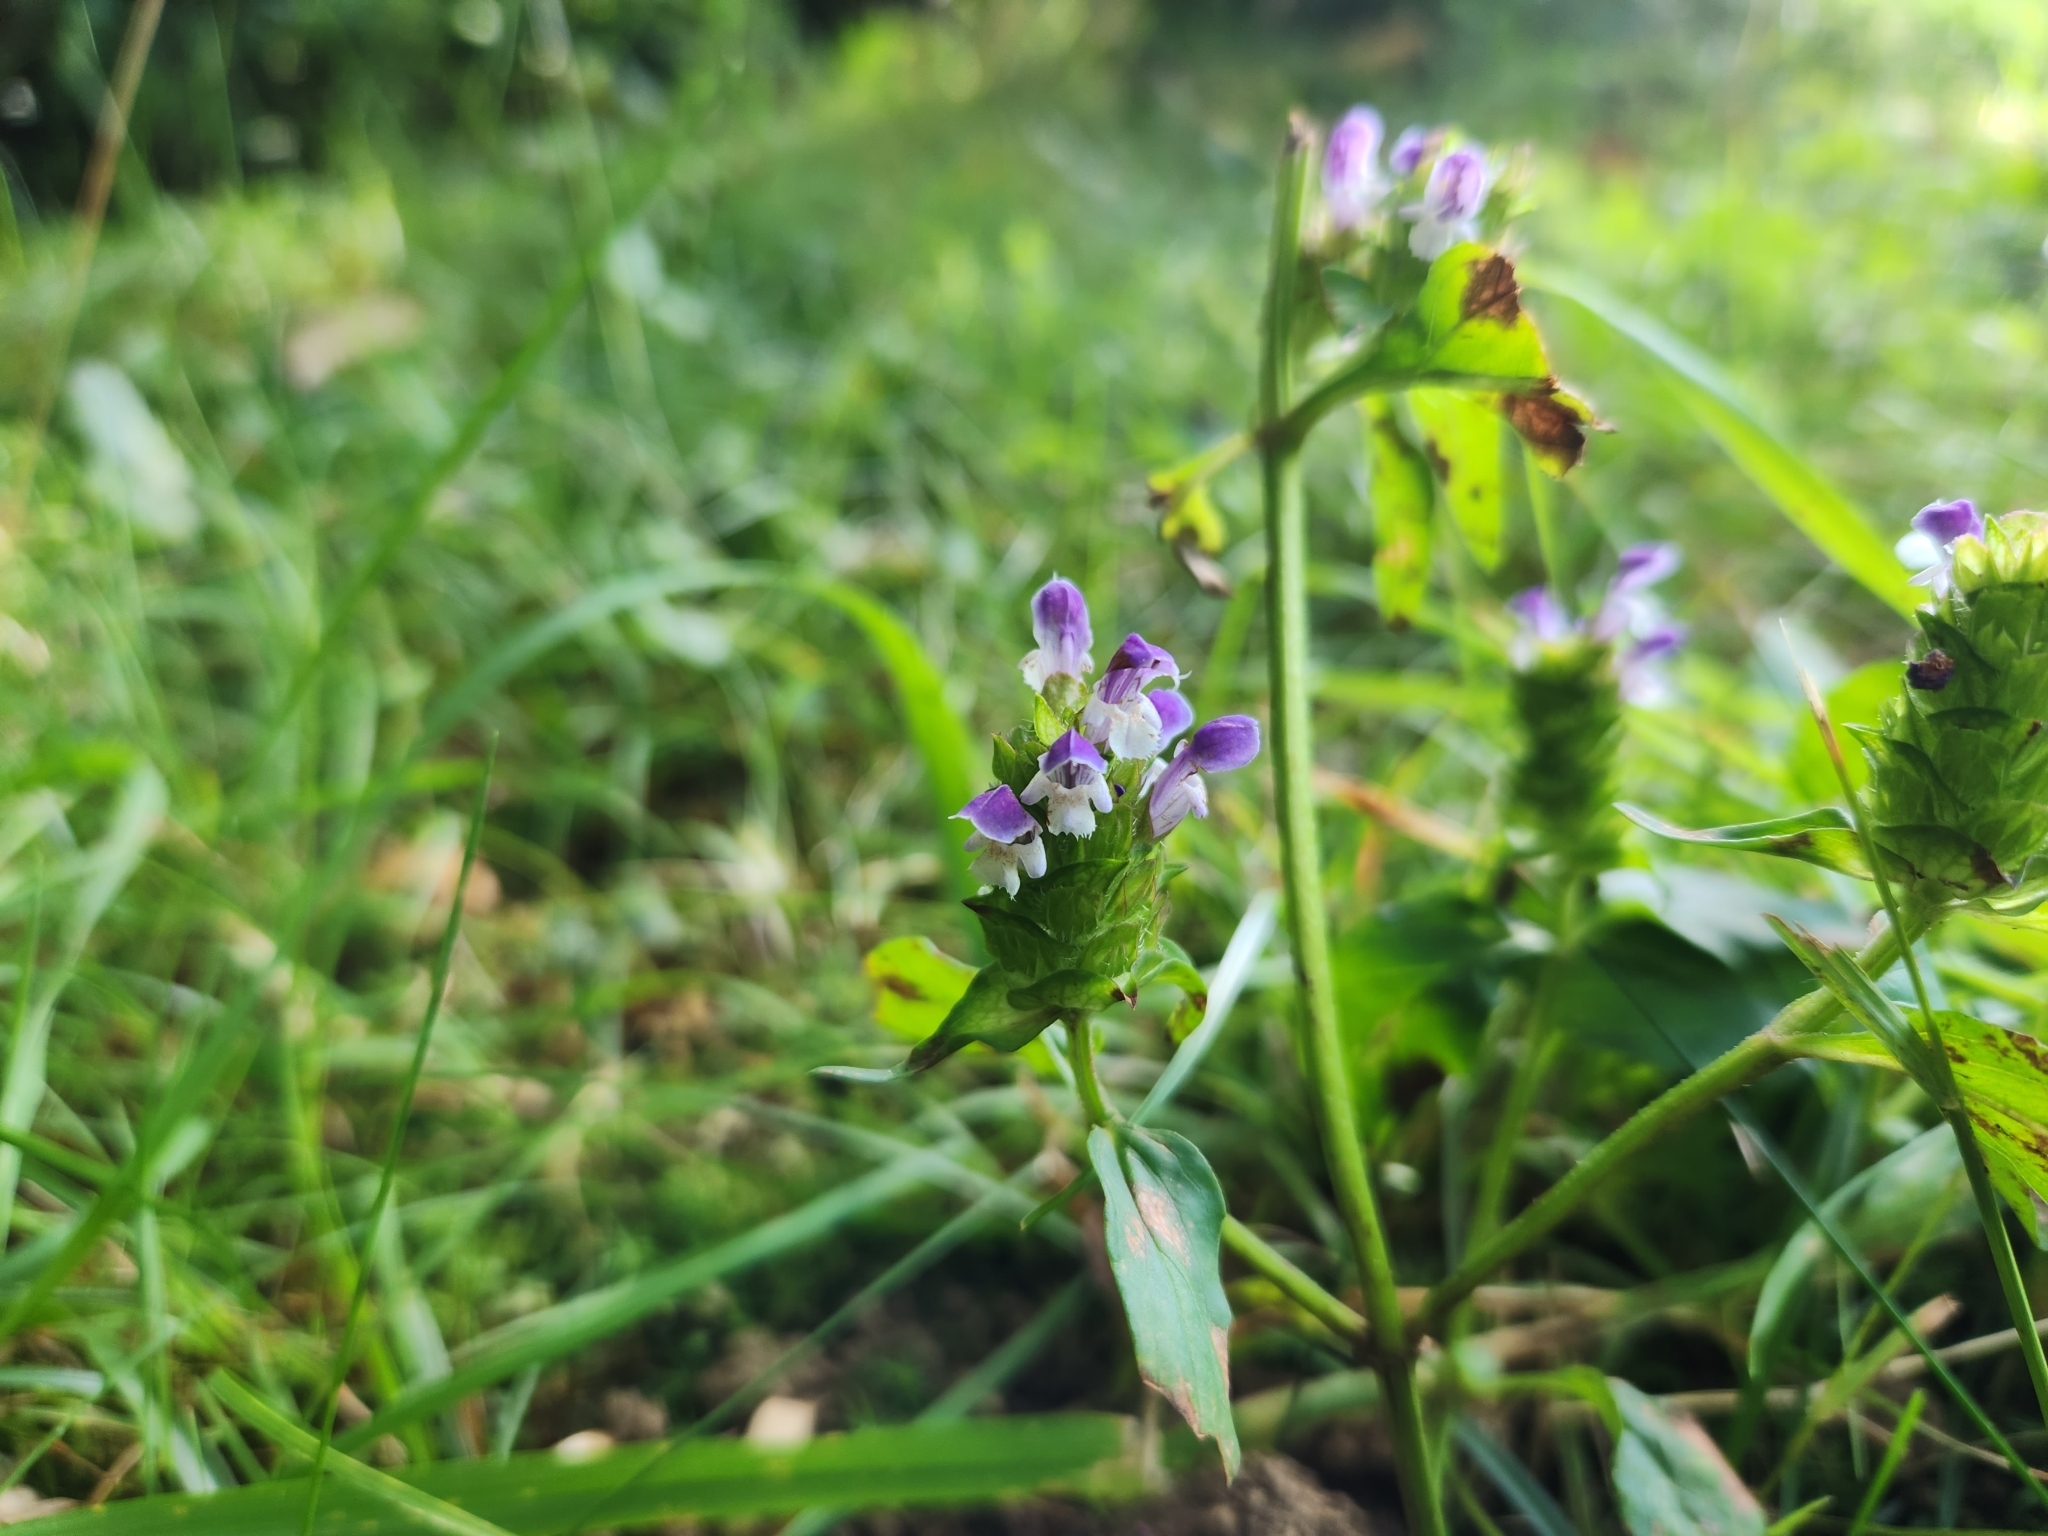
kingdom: Plantae
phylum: Tracheophyta
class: Magnoliopsida
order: Lamiales
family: Lamiaceae
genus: Prunella
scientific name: Prunella vulgaris
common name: Heal-all
